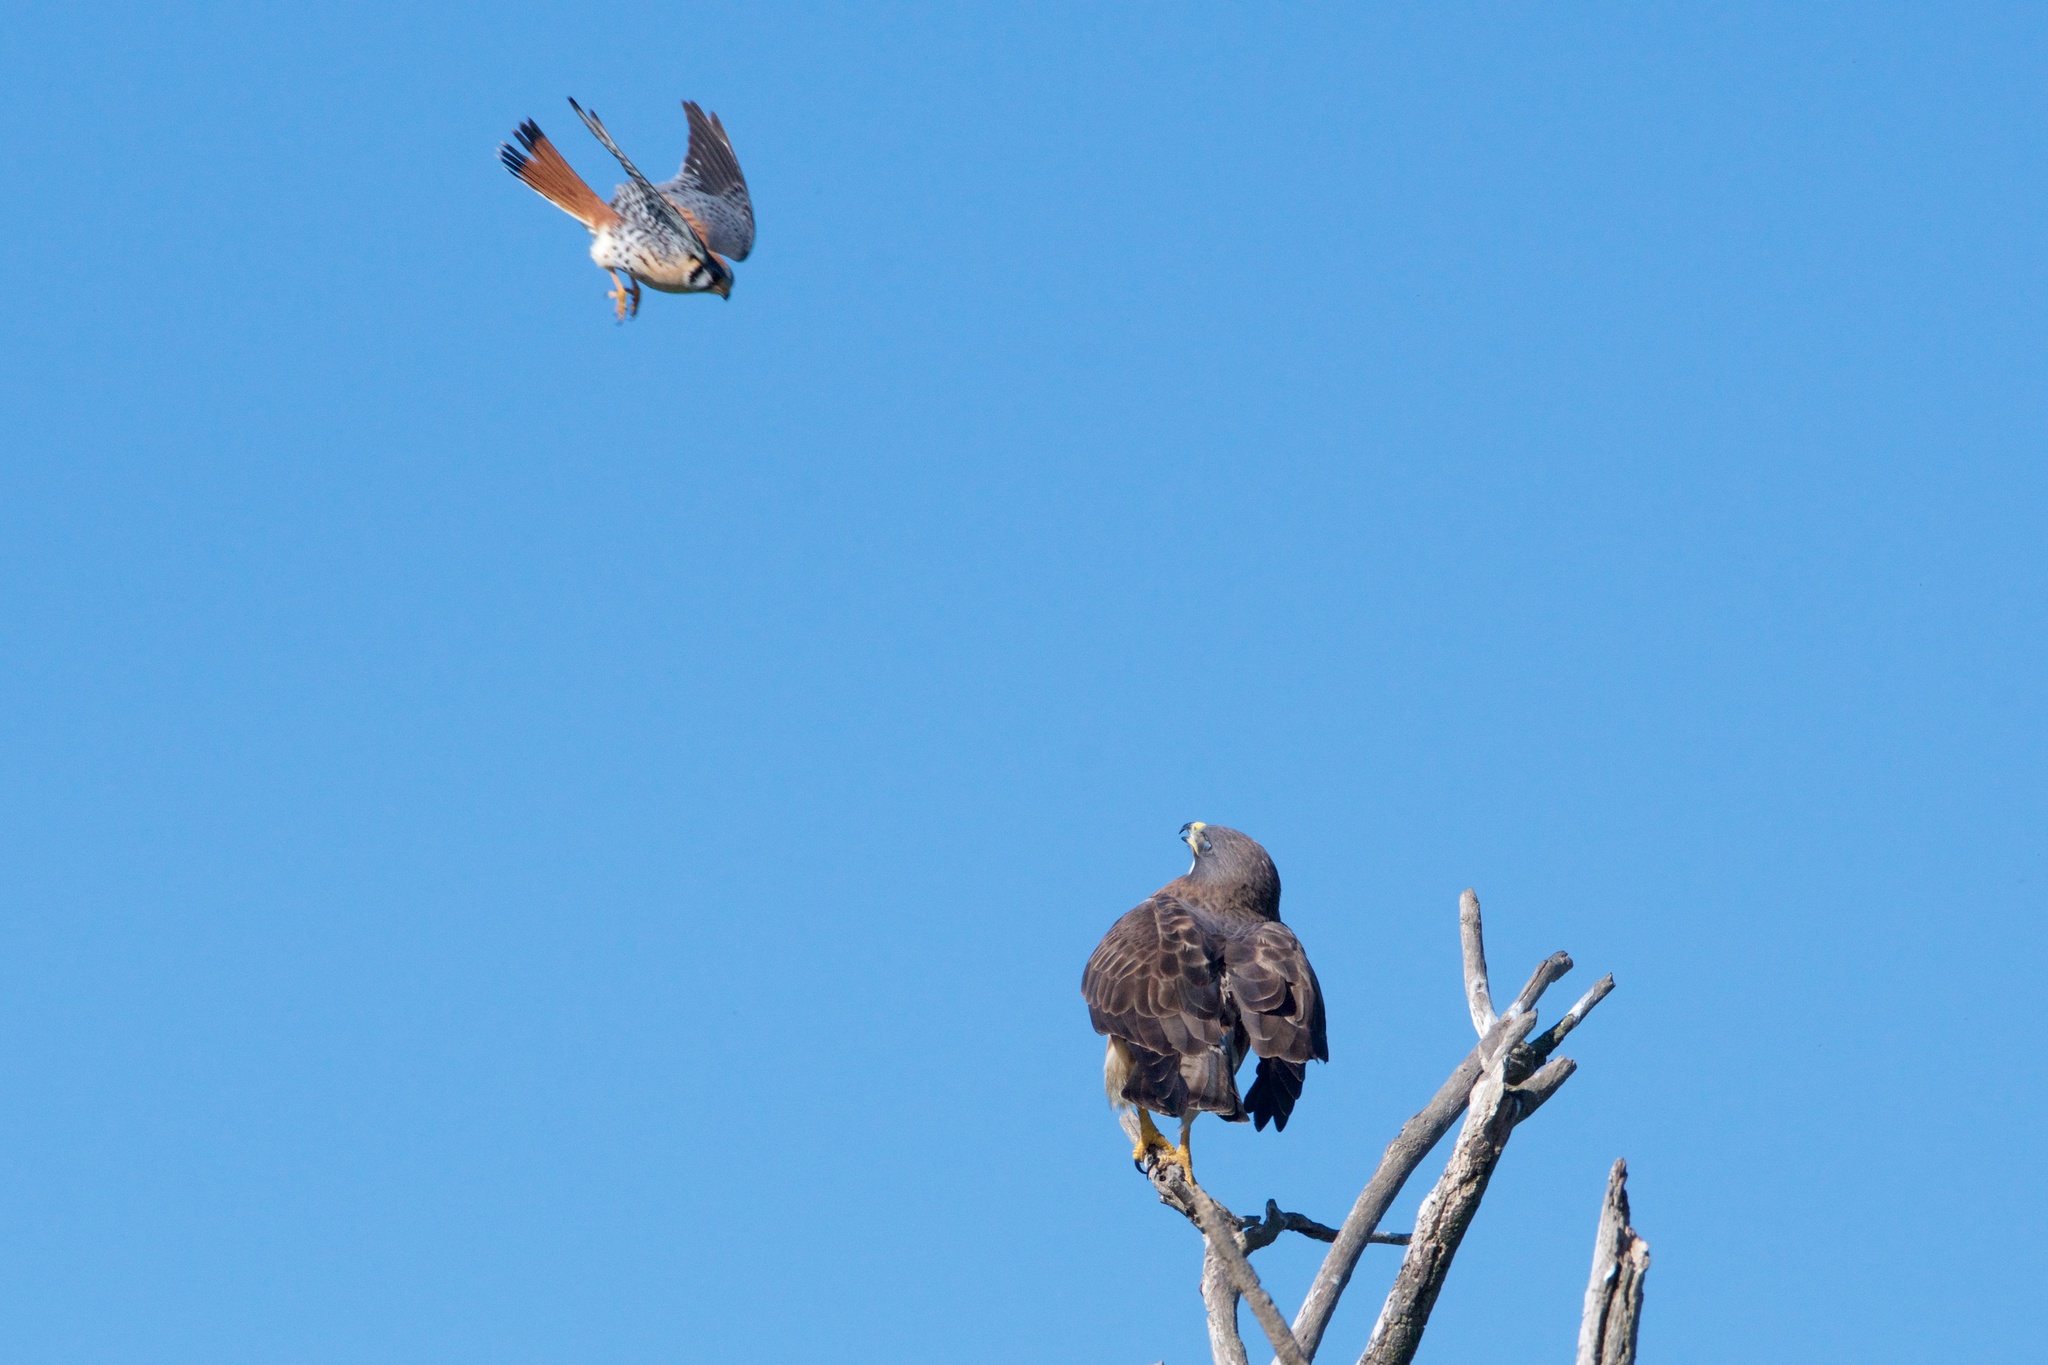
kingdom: Animalia
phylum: Chordata
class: Aves
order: Accipitriformes
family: Accipitridae
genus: Buteo
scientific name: Buteo swainsoni
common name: Swainson's hawk
